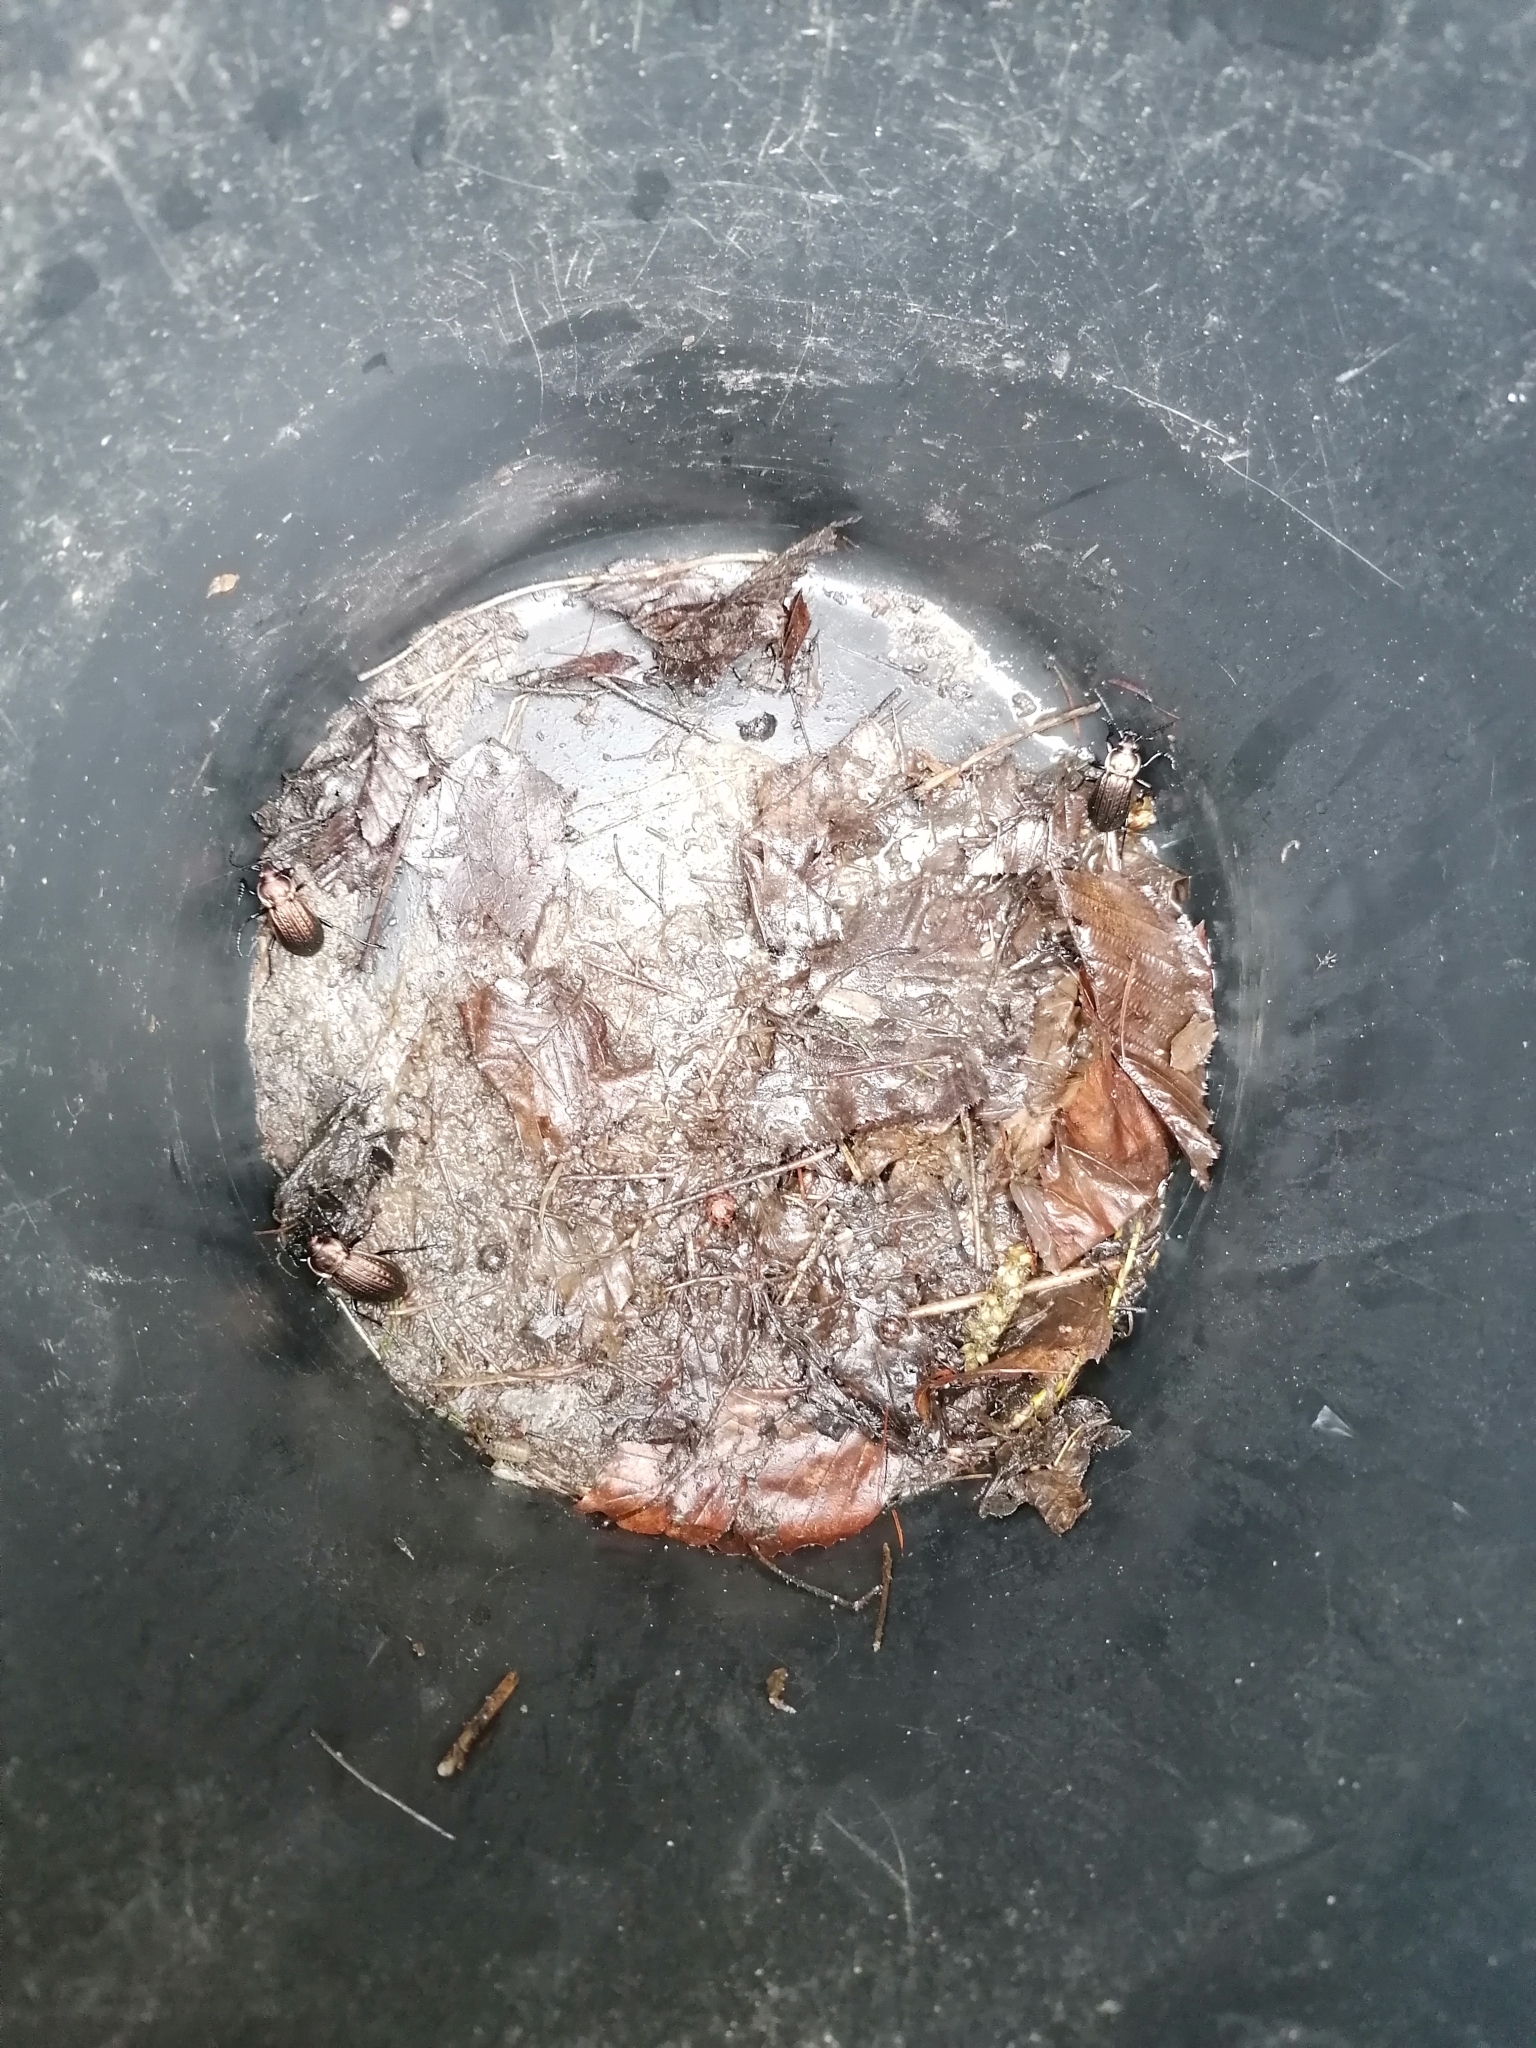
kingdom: Animalia
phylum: Arthropoda
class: Insecta
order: Coleoptera
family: Carabidae
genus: Carabus
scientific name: Carabus ulrichii
